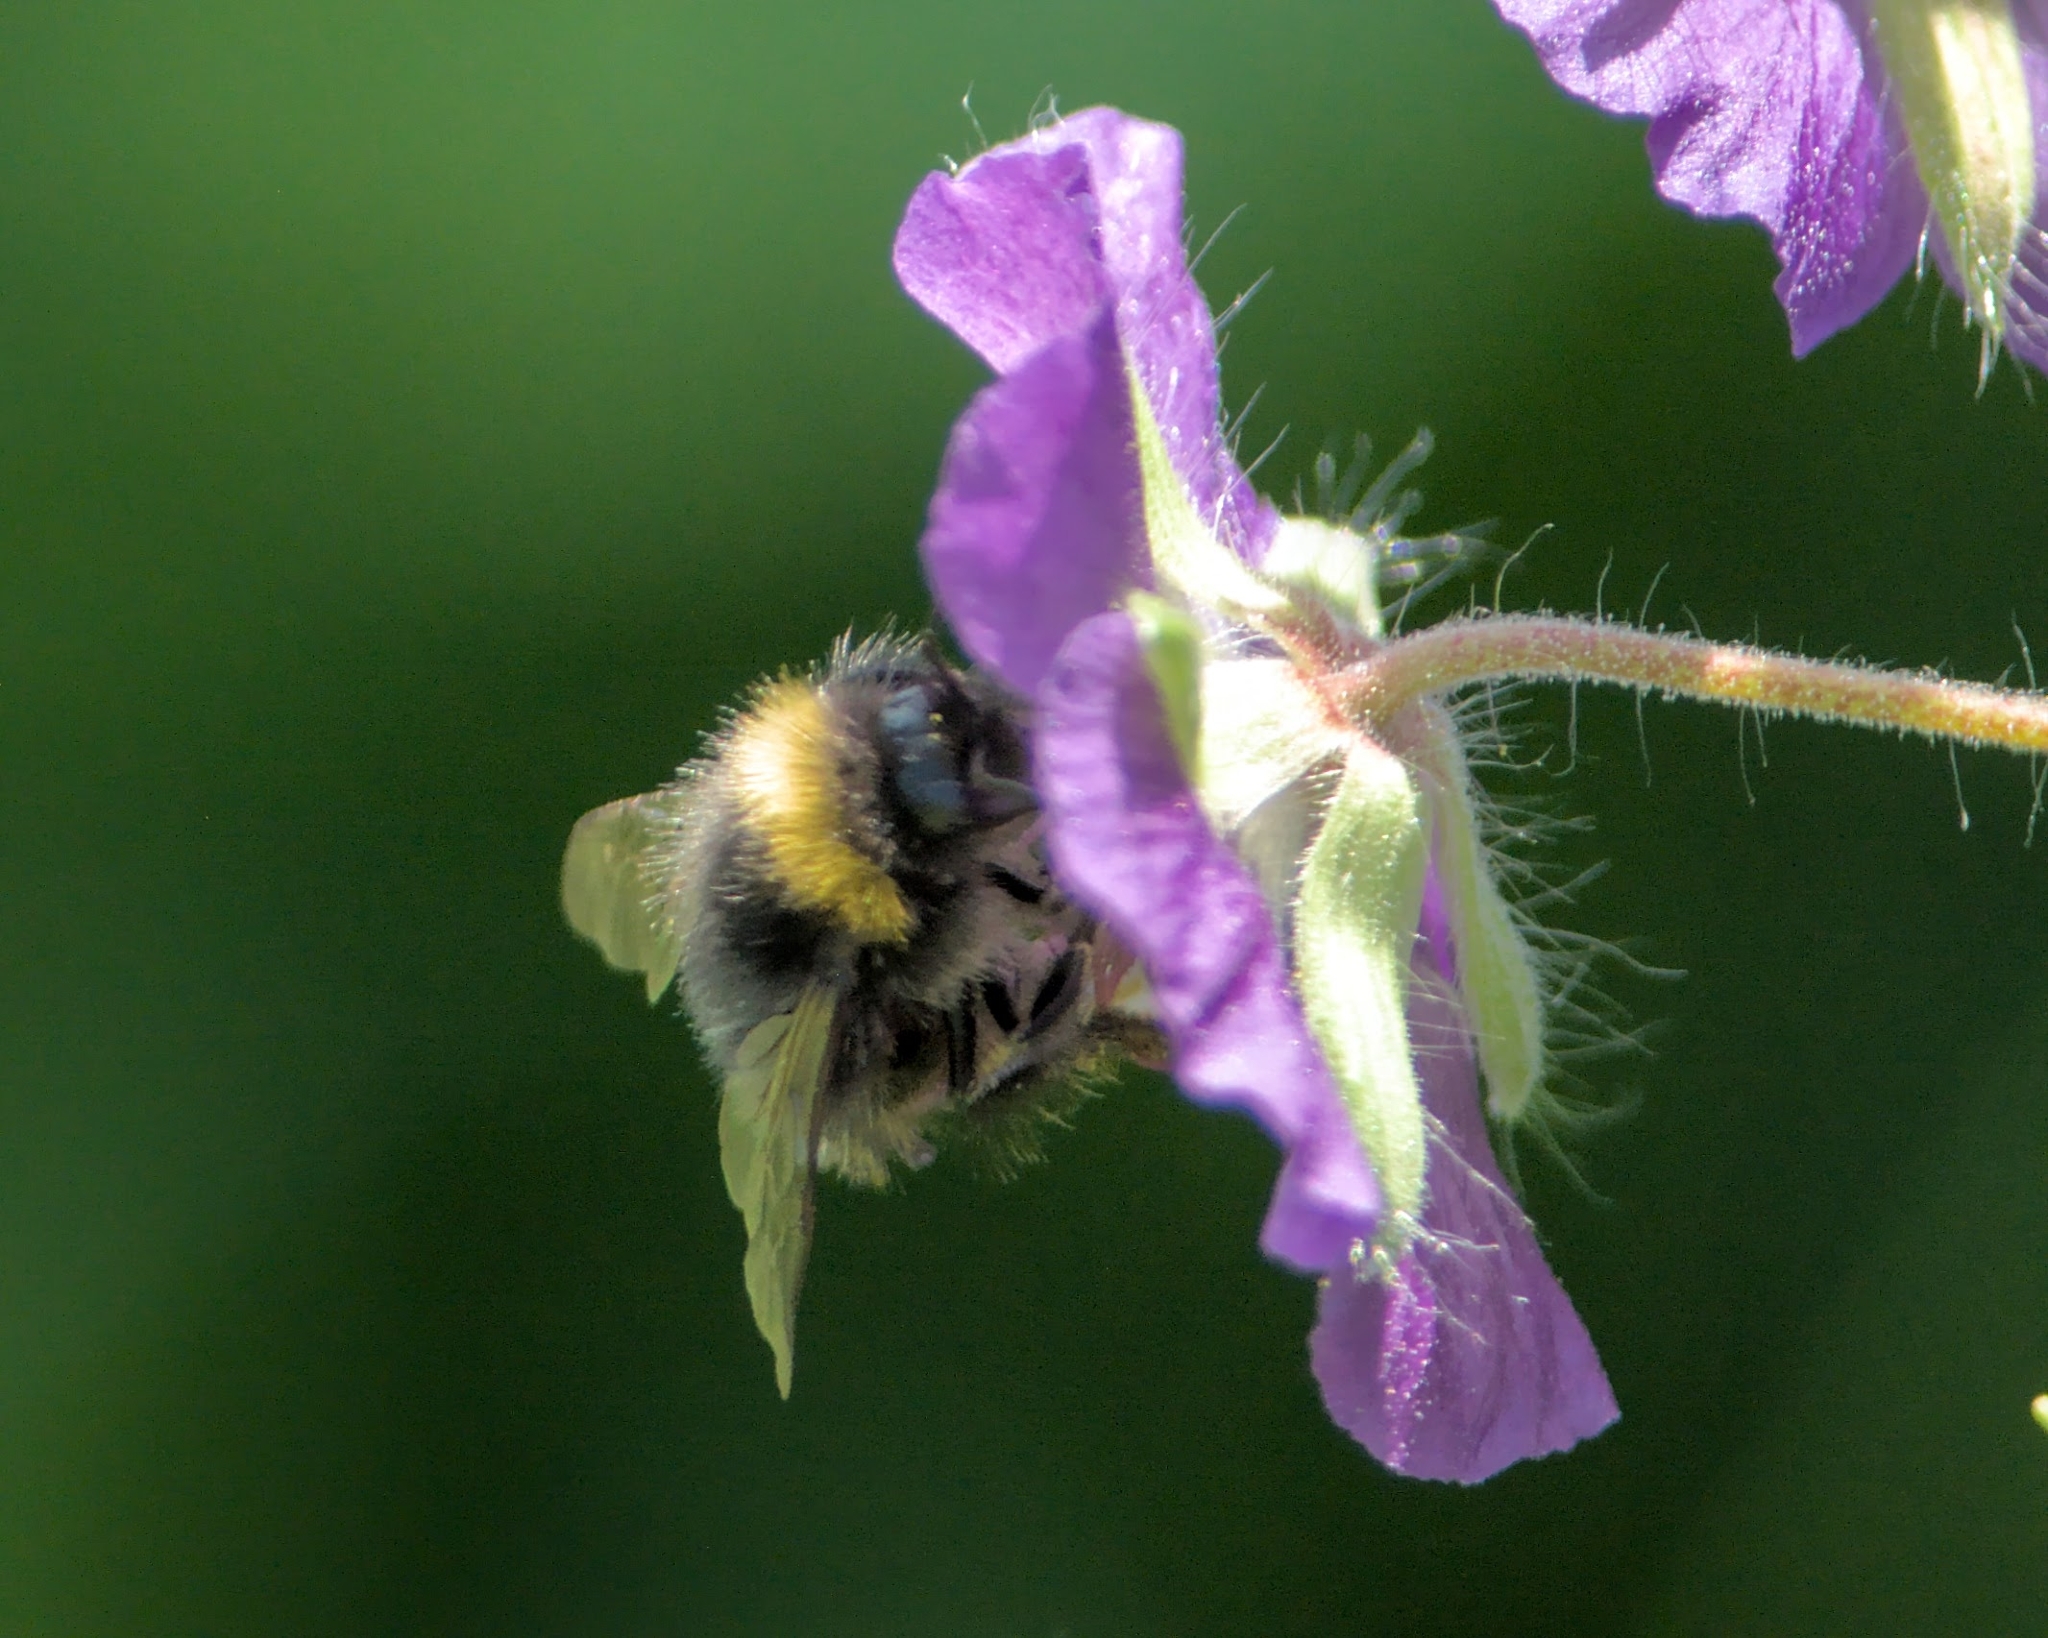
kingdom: Animalia
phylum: Arthropoda
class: Insecta
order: Hymenoptera
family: Apidae
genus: Bombus
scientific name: Bombus pratorum
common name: Early humble-bee
